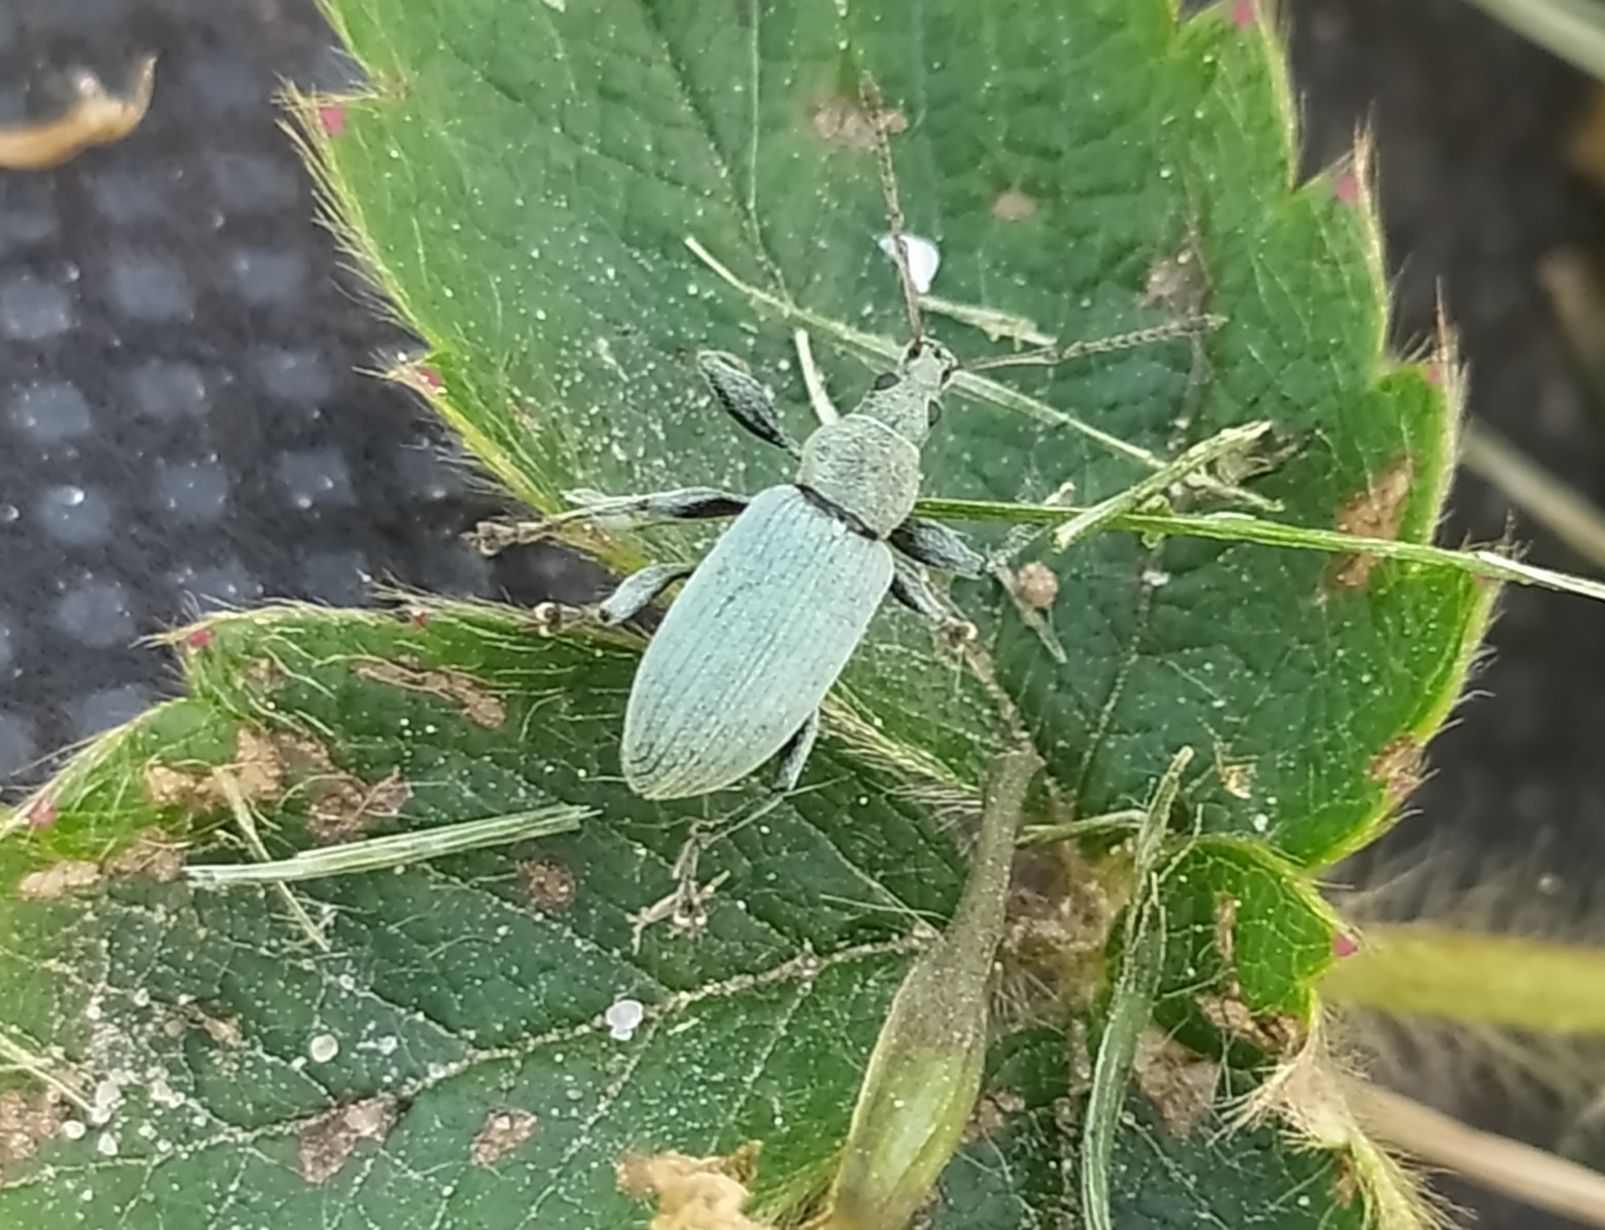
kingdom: Animalia
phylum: Arthropoda
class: Insecta
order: Coleoptera
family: Curculionidae
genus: Phyllobius
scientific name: Phyllobius pomaceus
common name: Green nettle weevil
